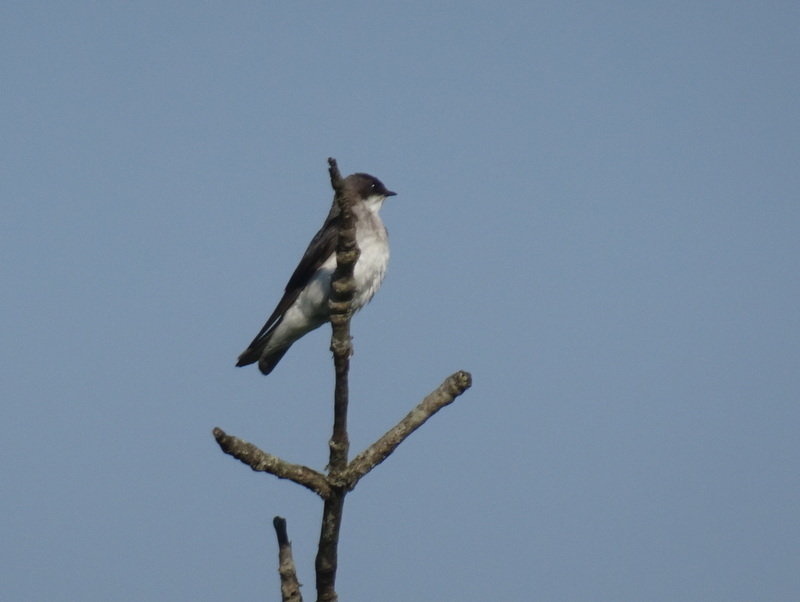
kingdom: Animalia
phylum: Chordata
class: Aves
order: Passeriformes
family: Hirundinidae
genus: Tachycineta
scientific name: Tachycineta bicolor
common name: Tree swallow
